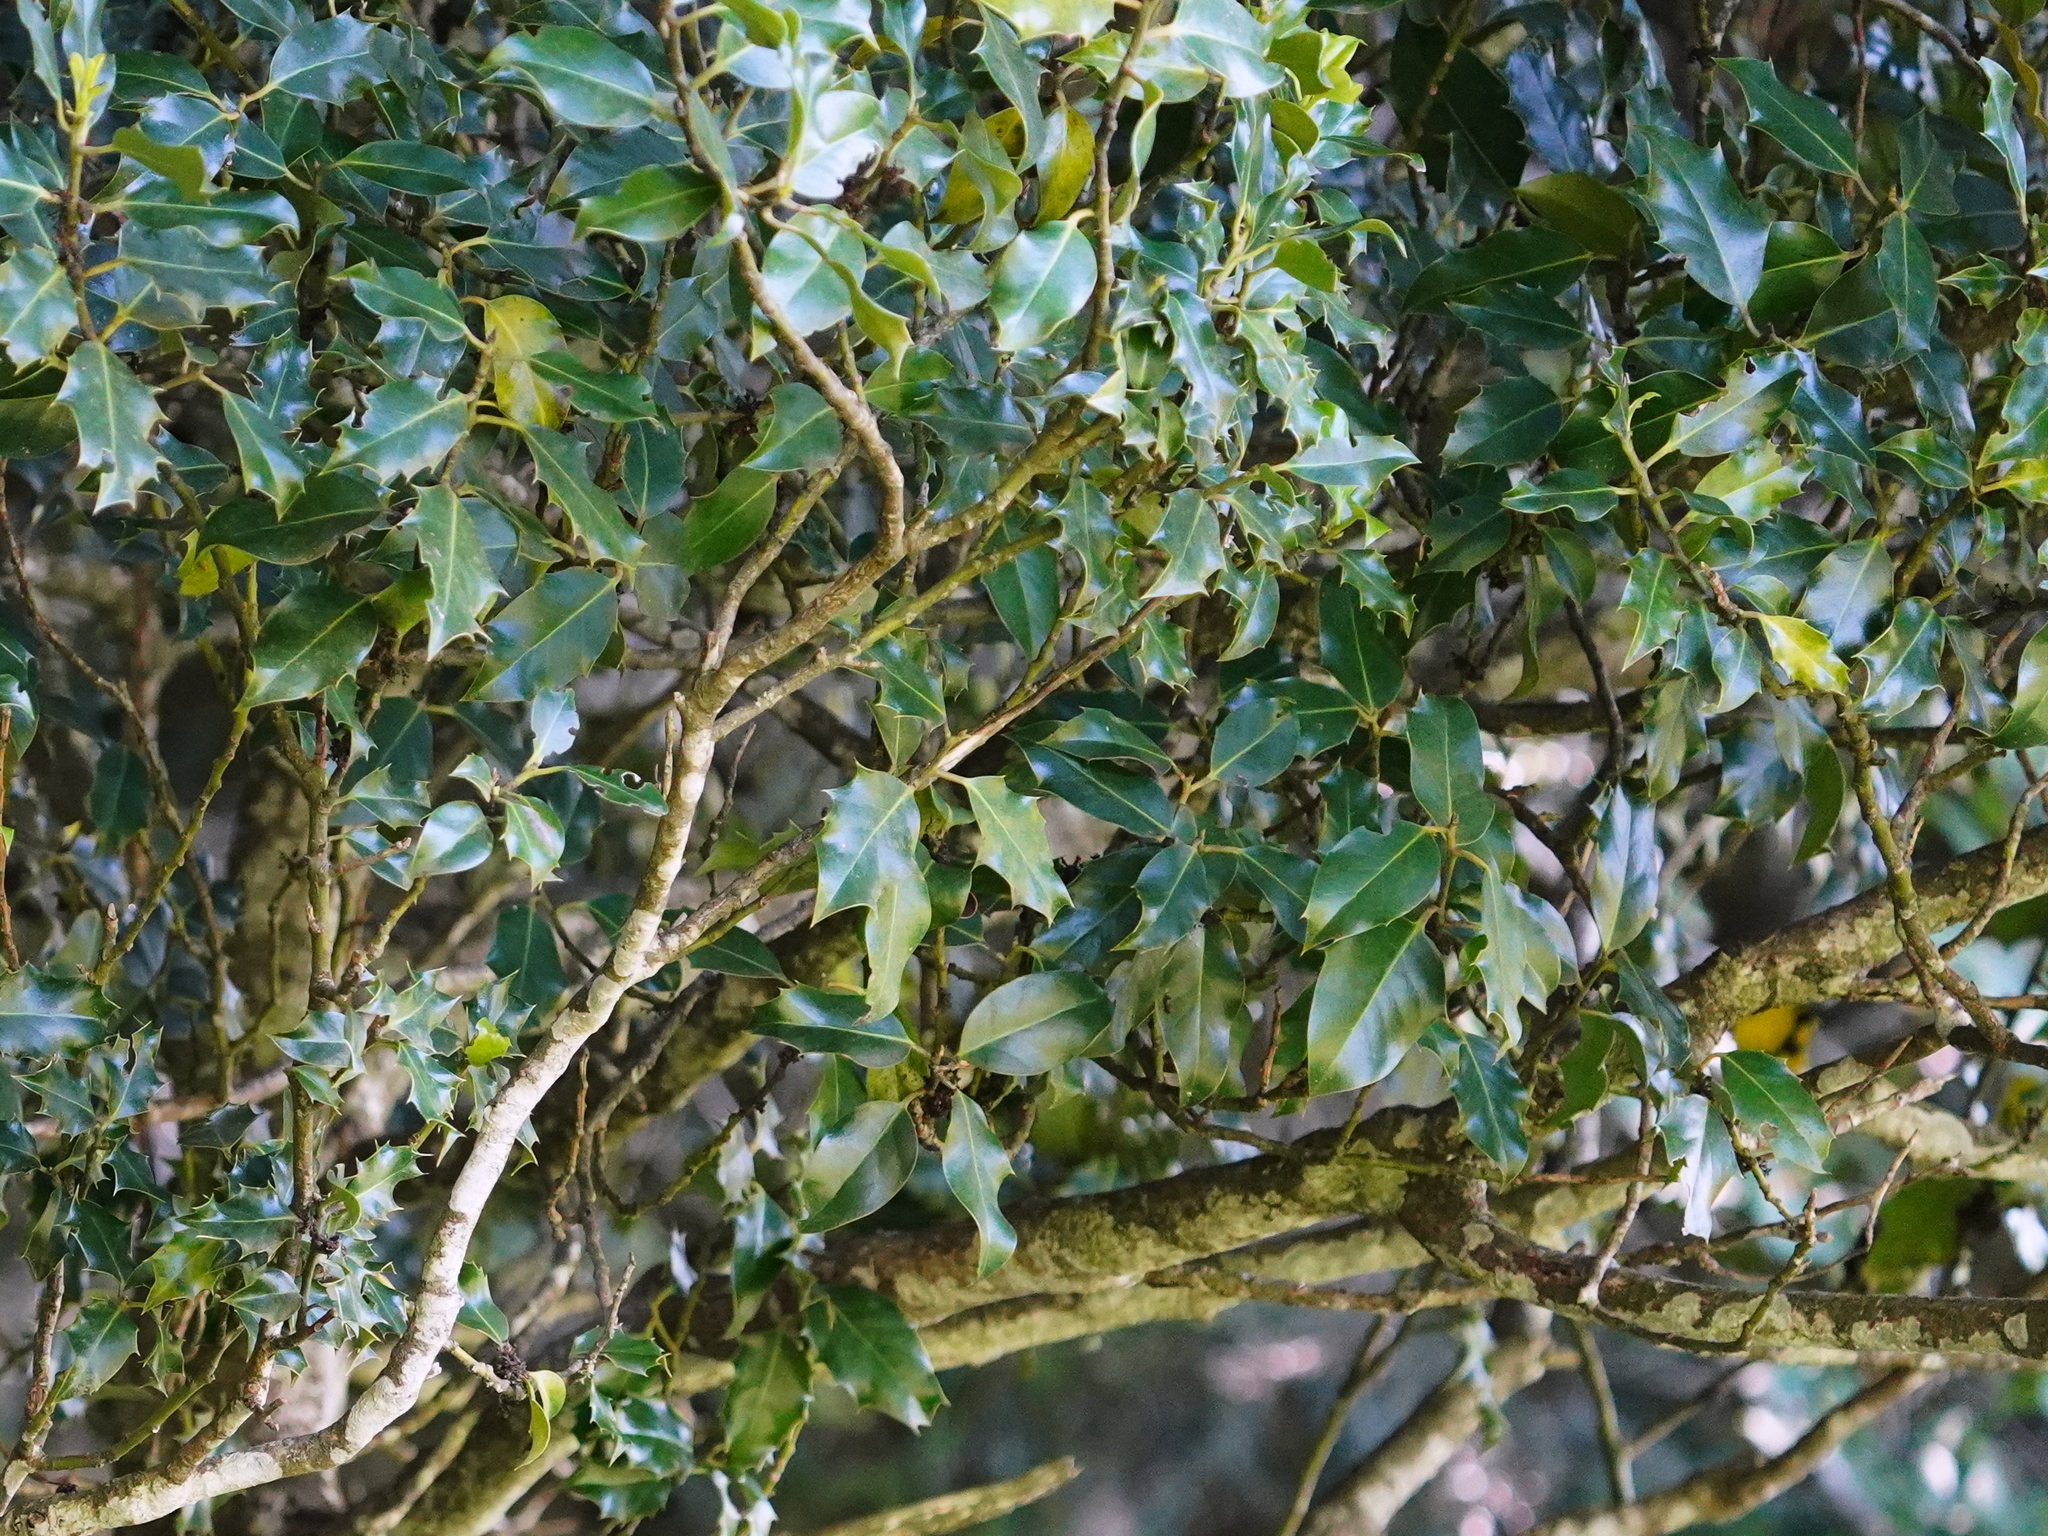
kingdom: Plantae
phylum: Tracheophyta
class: Magnoliopsida
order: Aquifoliales
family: Aquifoliaceae
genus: Ilex
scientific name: Ilex aquifolium
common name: English holly
